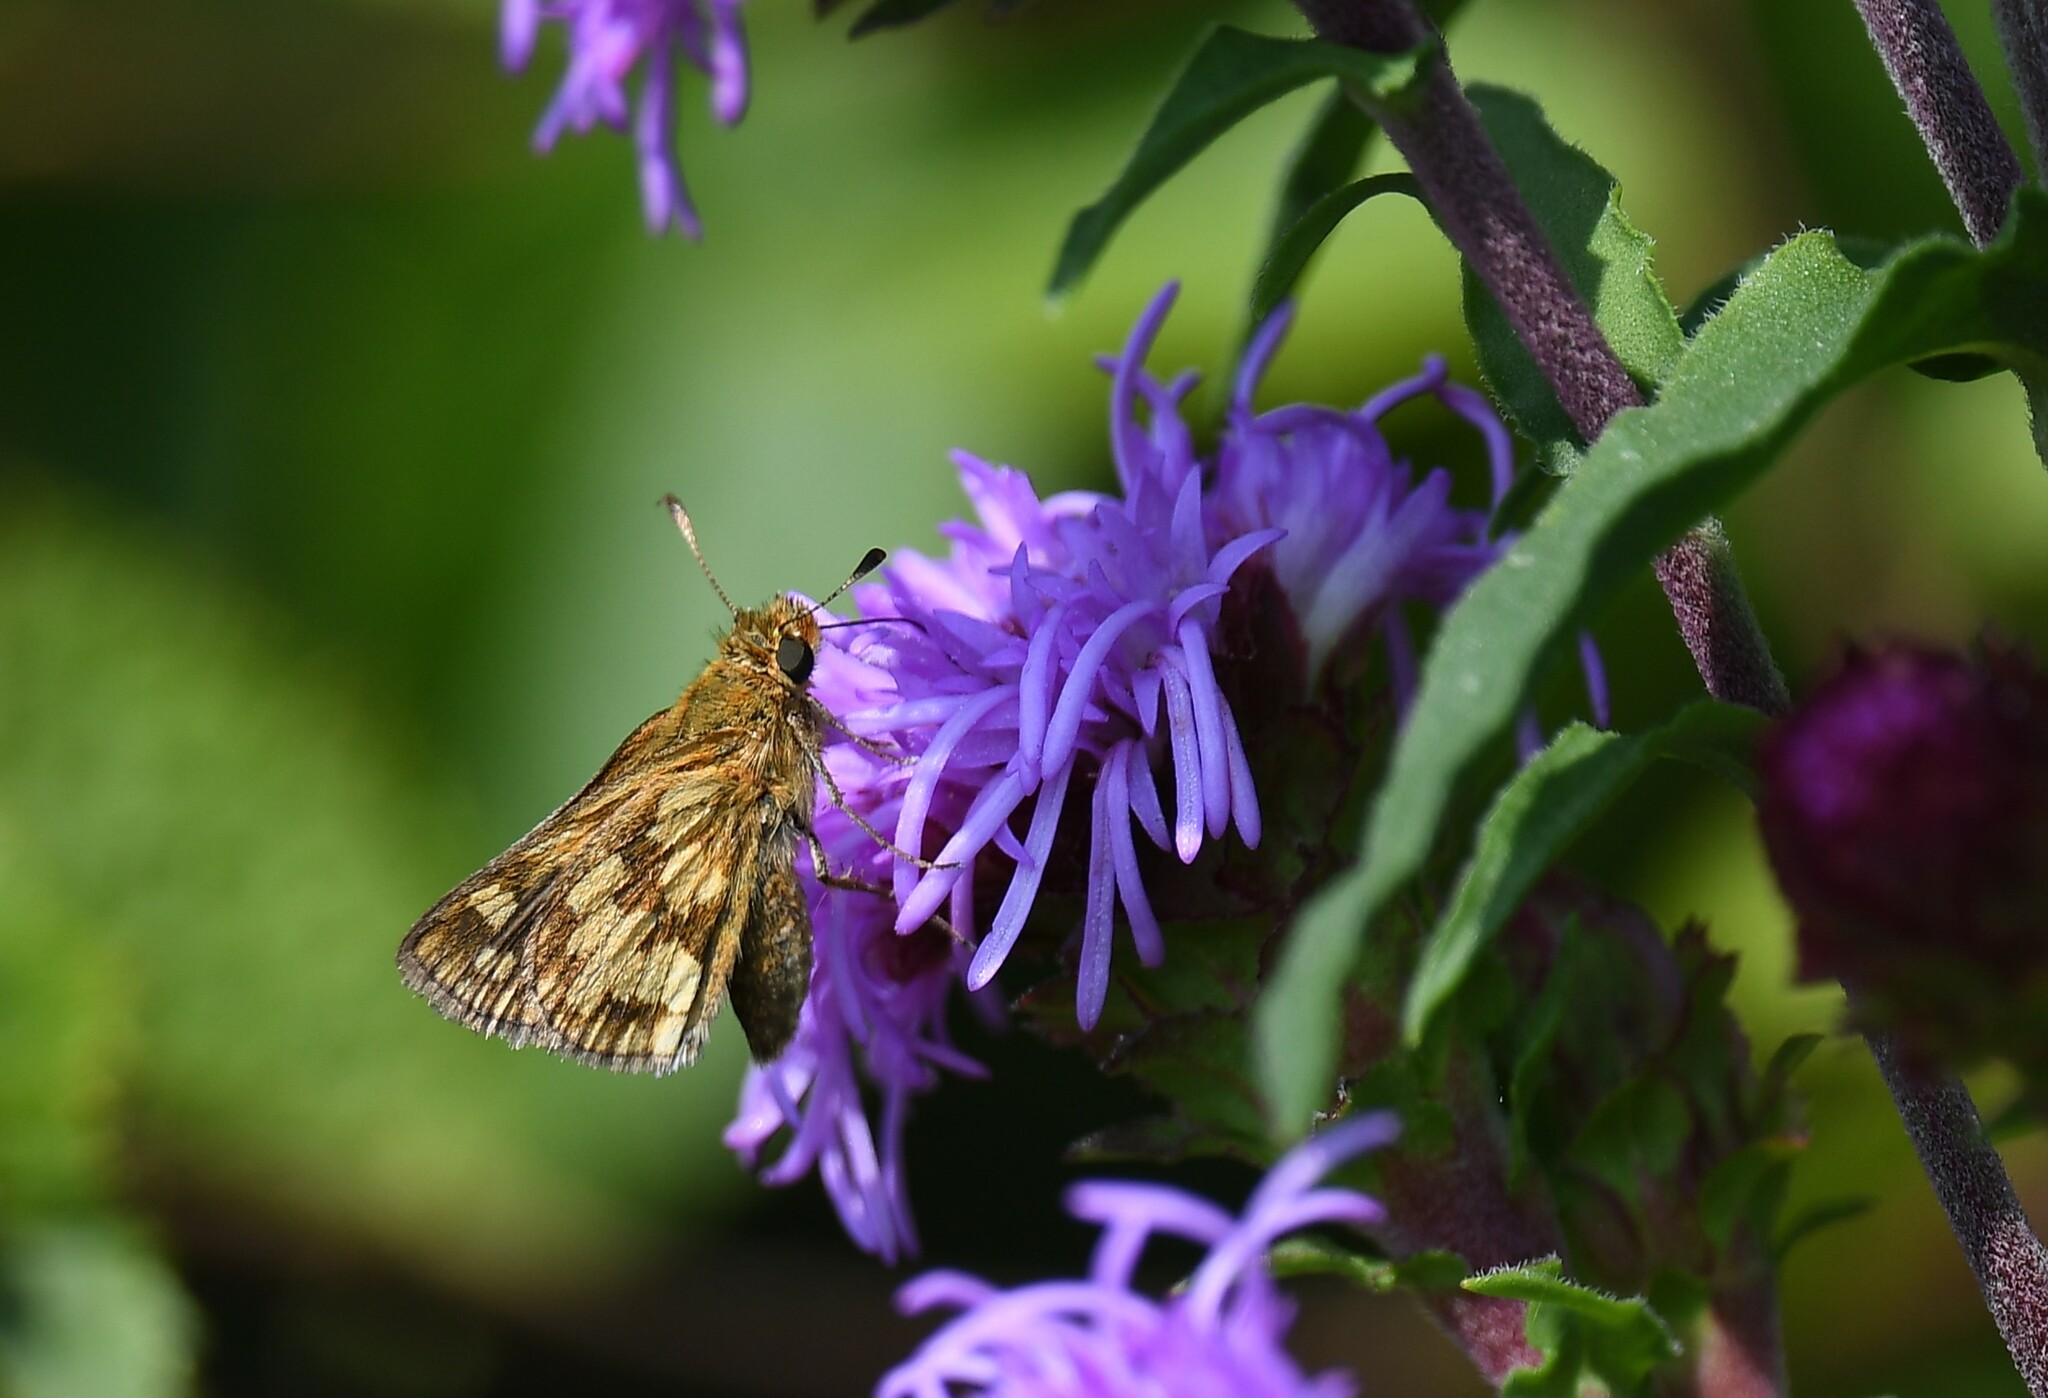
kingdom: Animalia
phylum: Arthropoda
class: Insecta
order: Lepidoptera
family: Hesperiidae
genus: Polites
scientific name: Polites coras
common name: Peck's skipper
